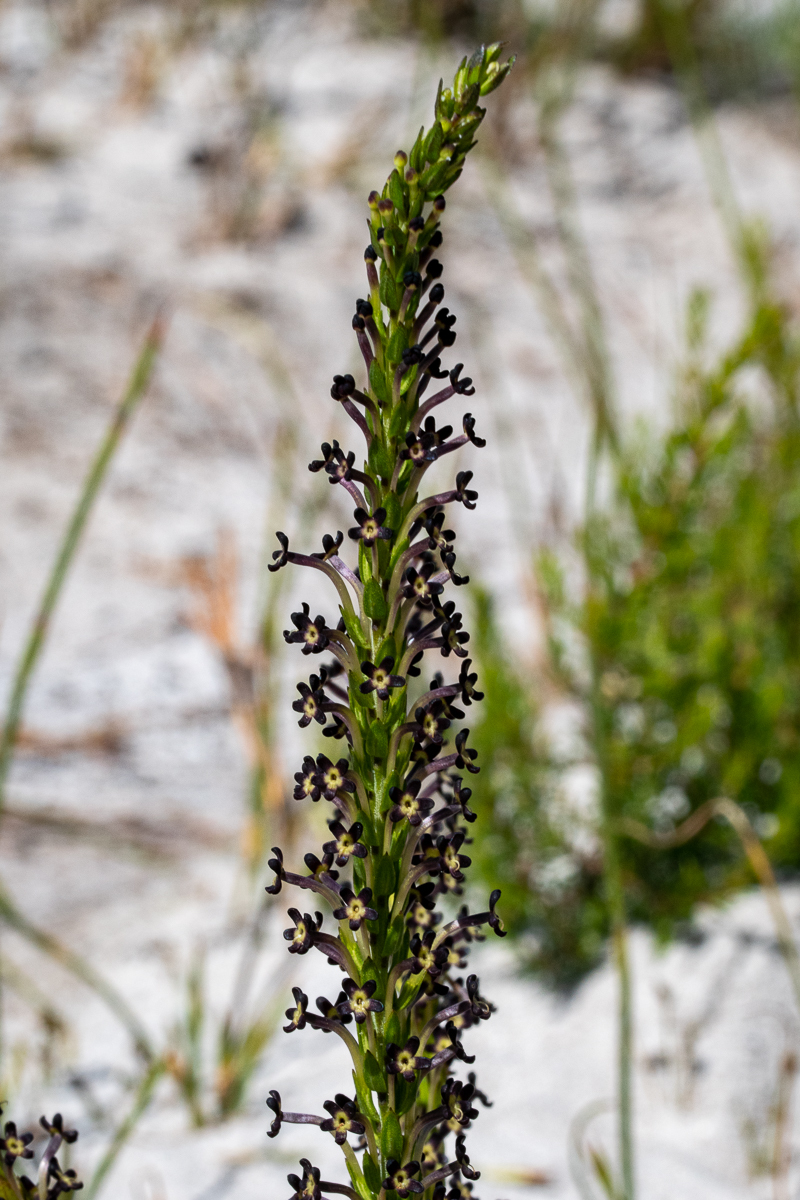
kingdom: Plantae
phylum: Tracheophyta
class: Magnoliopsida
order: Lamiales
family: Scrophulariaceae
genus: Microdon
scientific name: Microdon dubius
